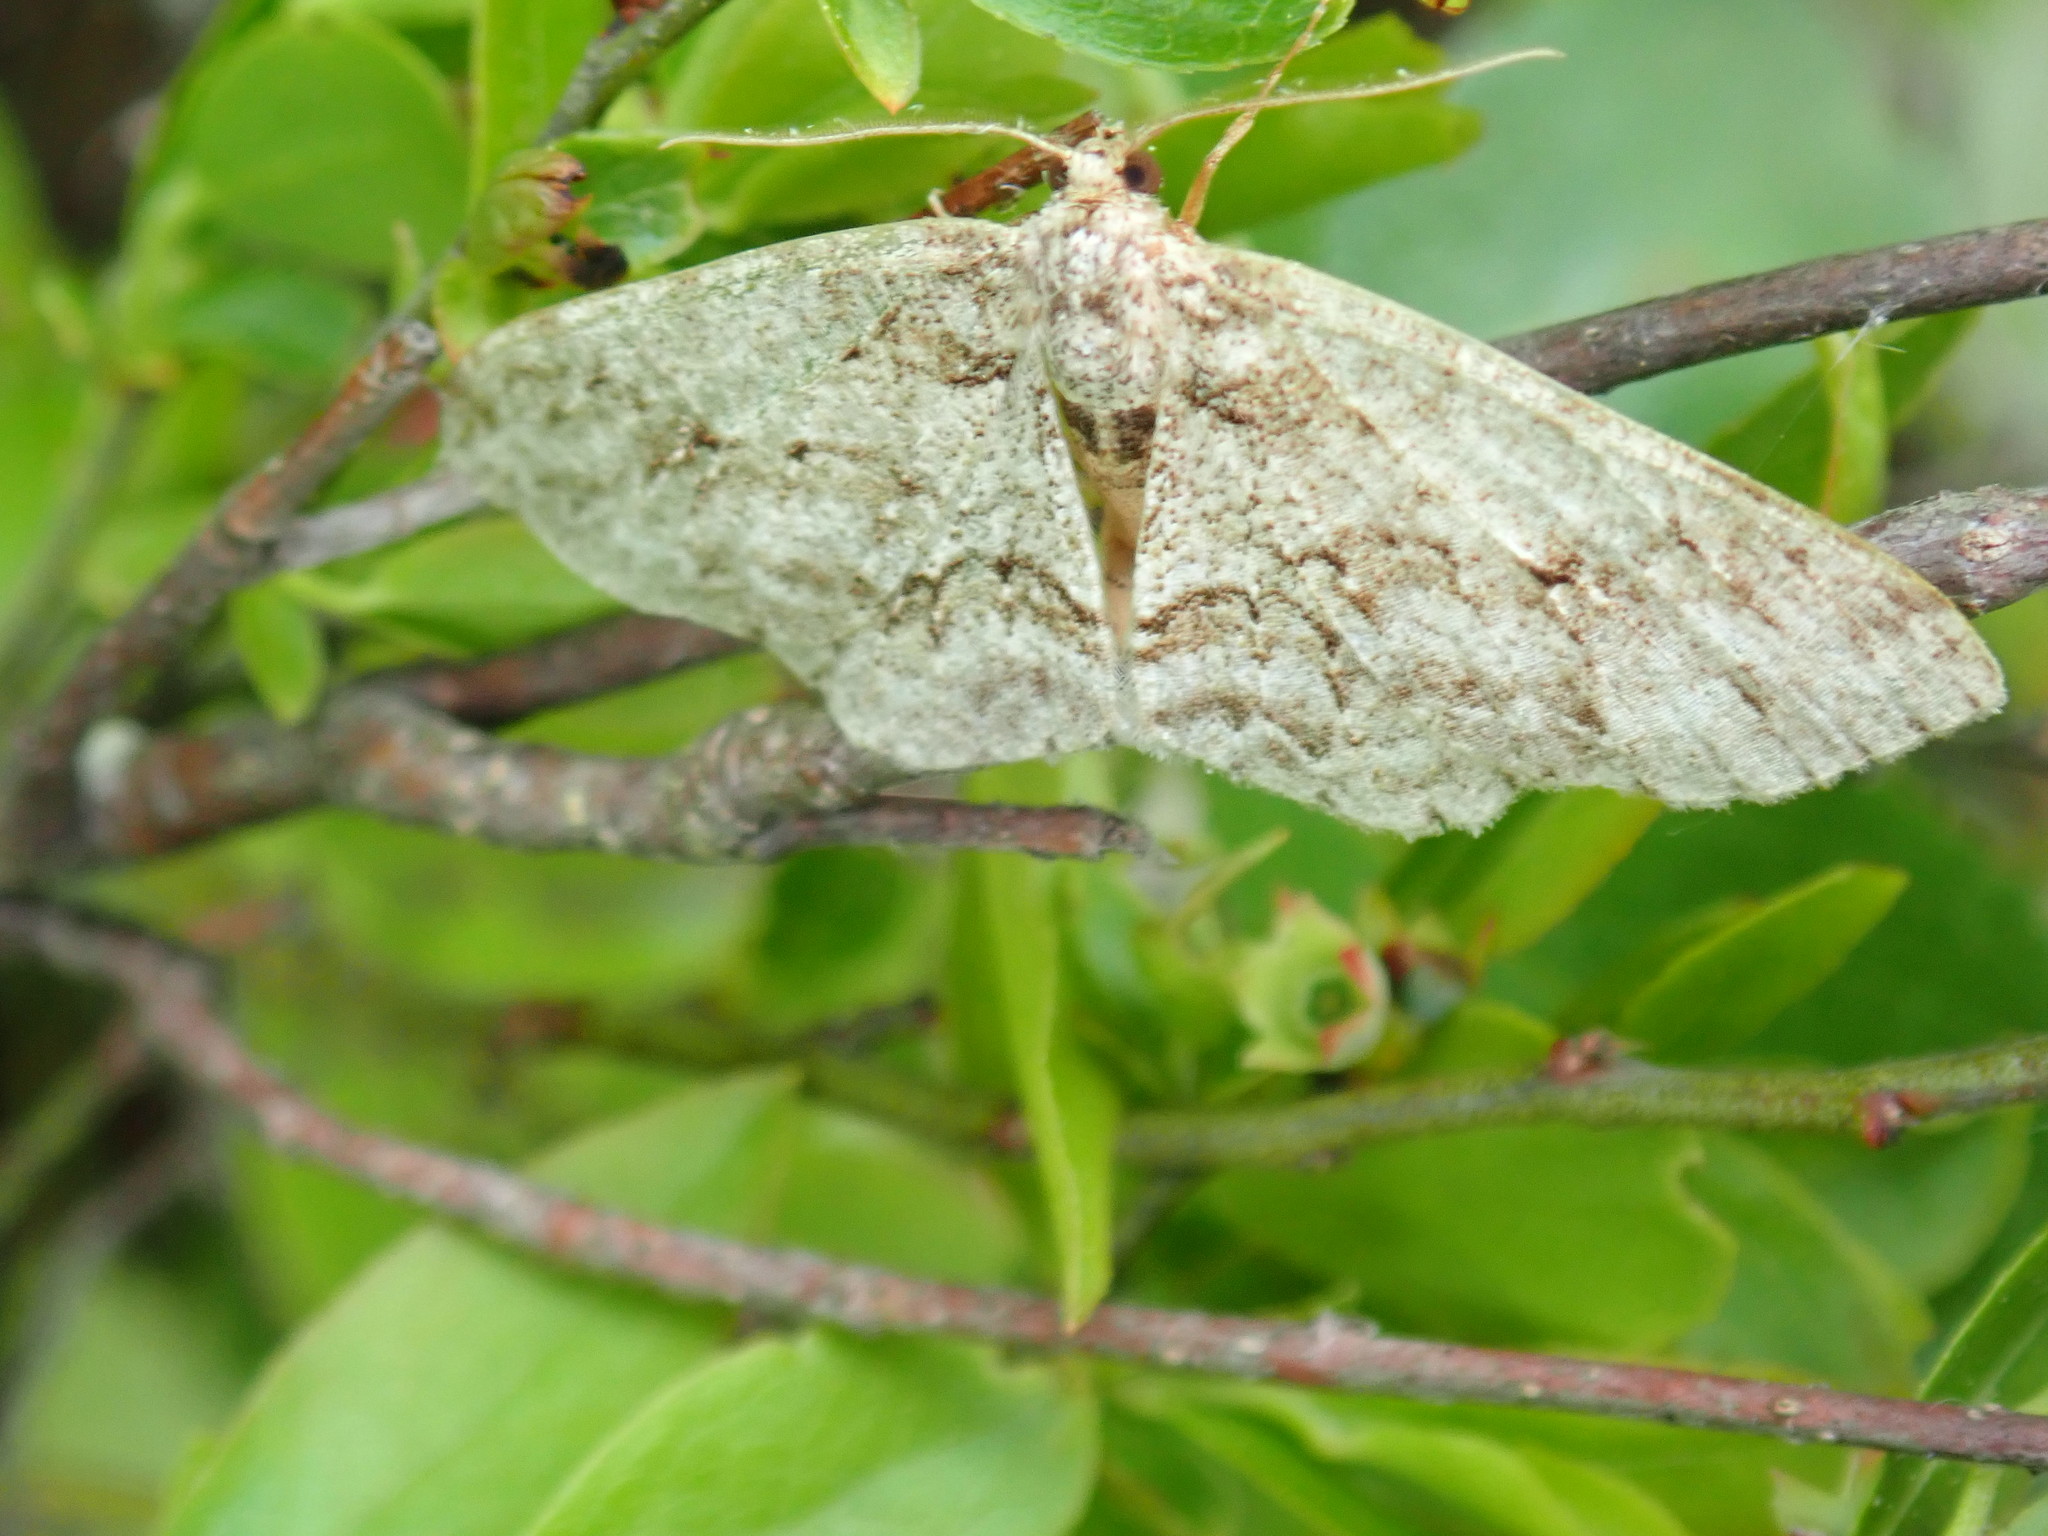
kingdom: Animalia
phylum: Arthropoda
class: Insecta
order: Lepidoptera
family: Geometridae
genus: Ectropis
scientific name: Ectropis crepuscularia
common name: Engrailed
